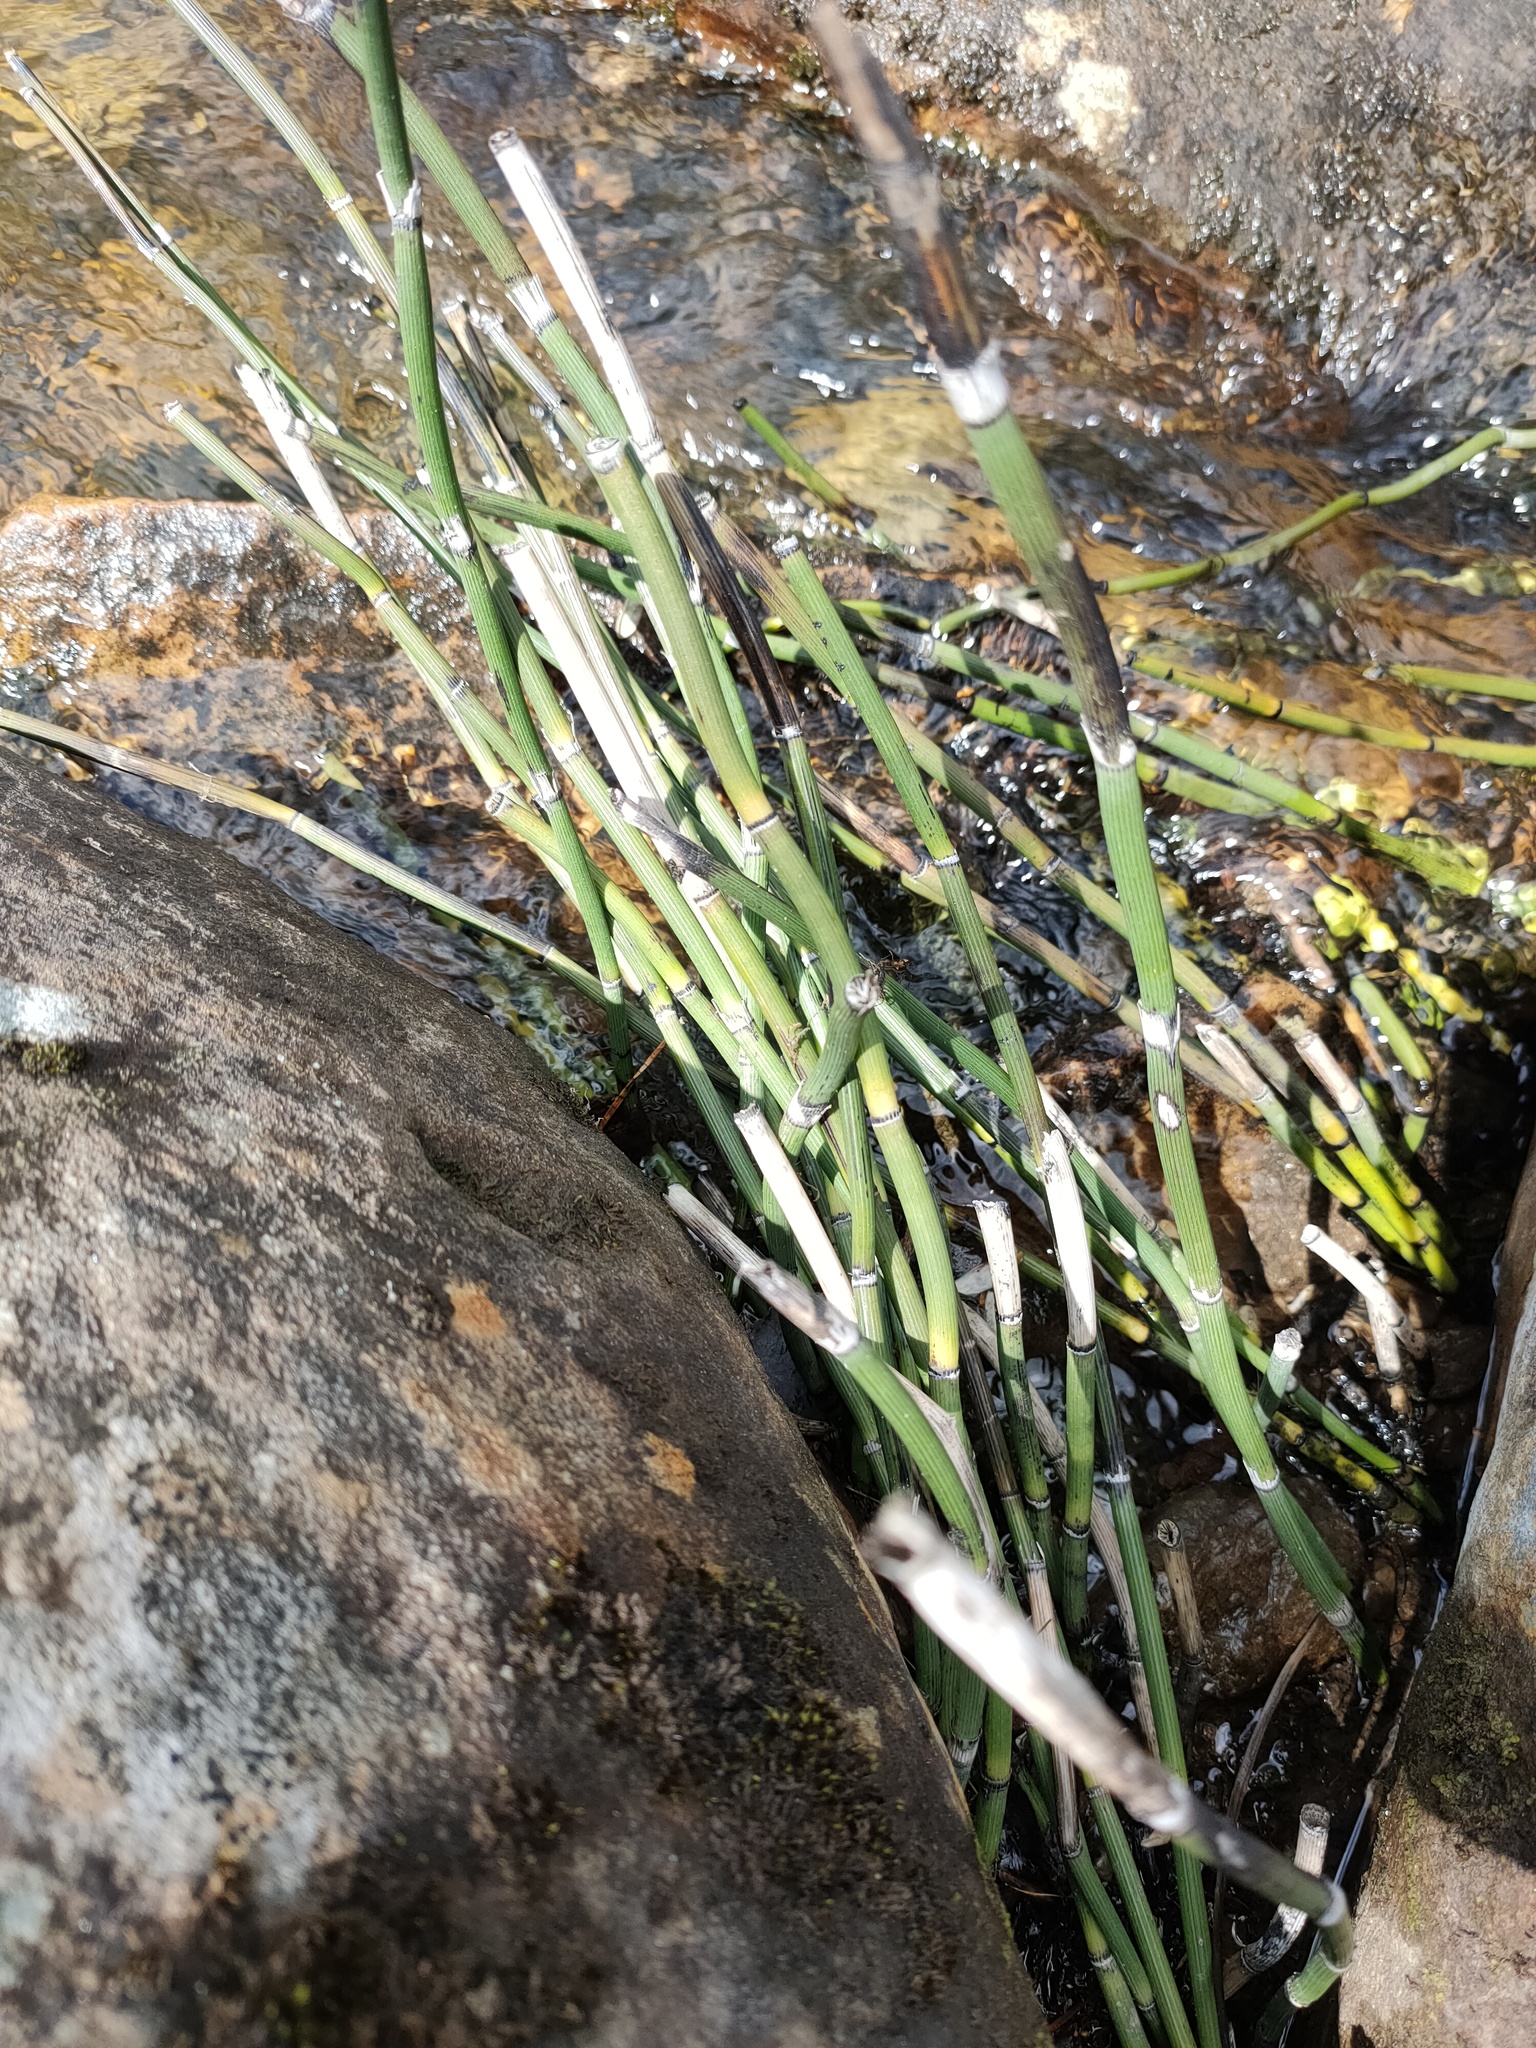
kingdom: Plantae
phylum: Tracheophyta
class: Polypodiopsida
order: Equisetales
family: Equisetaceae
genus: Equisetum
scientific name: Equisetum hyemale
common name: Rough horsetail
